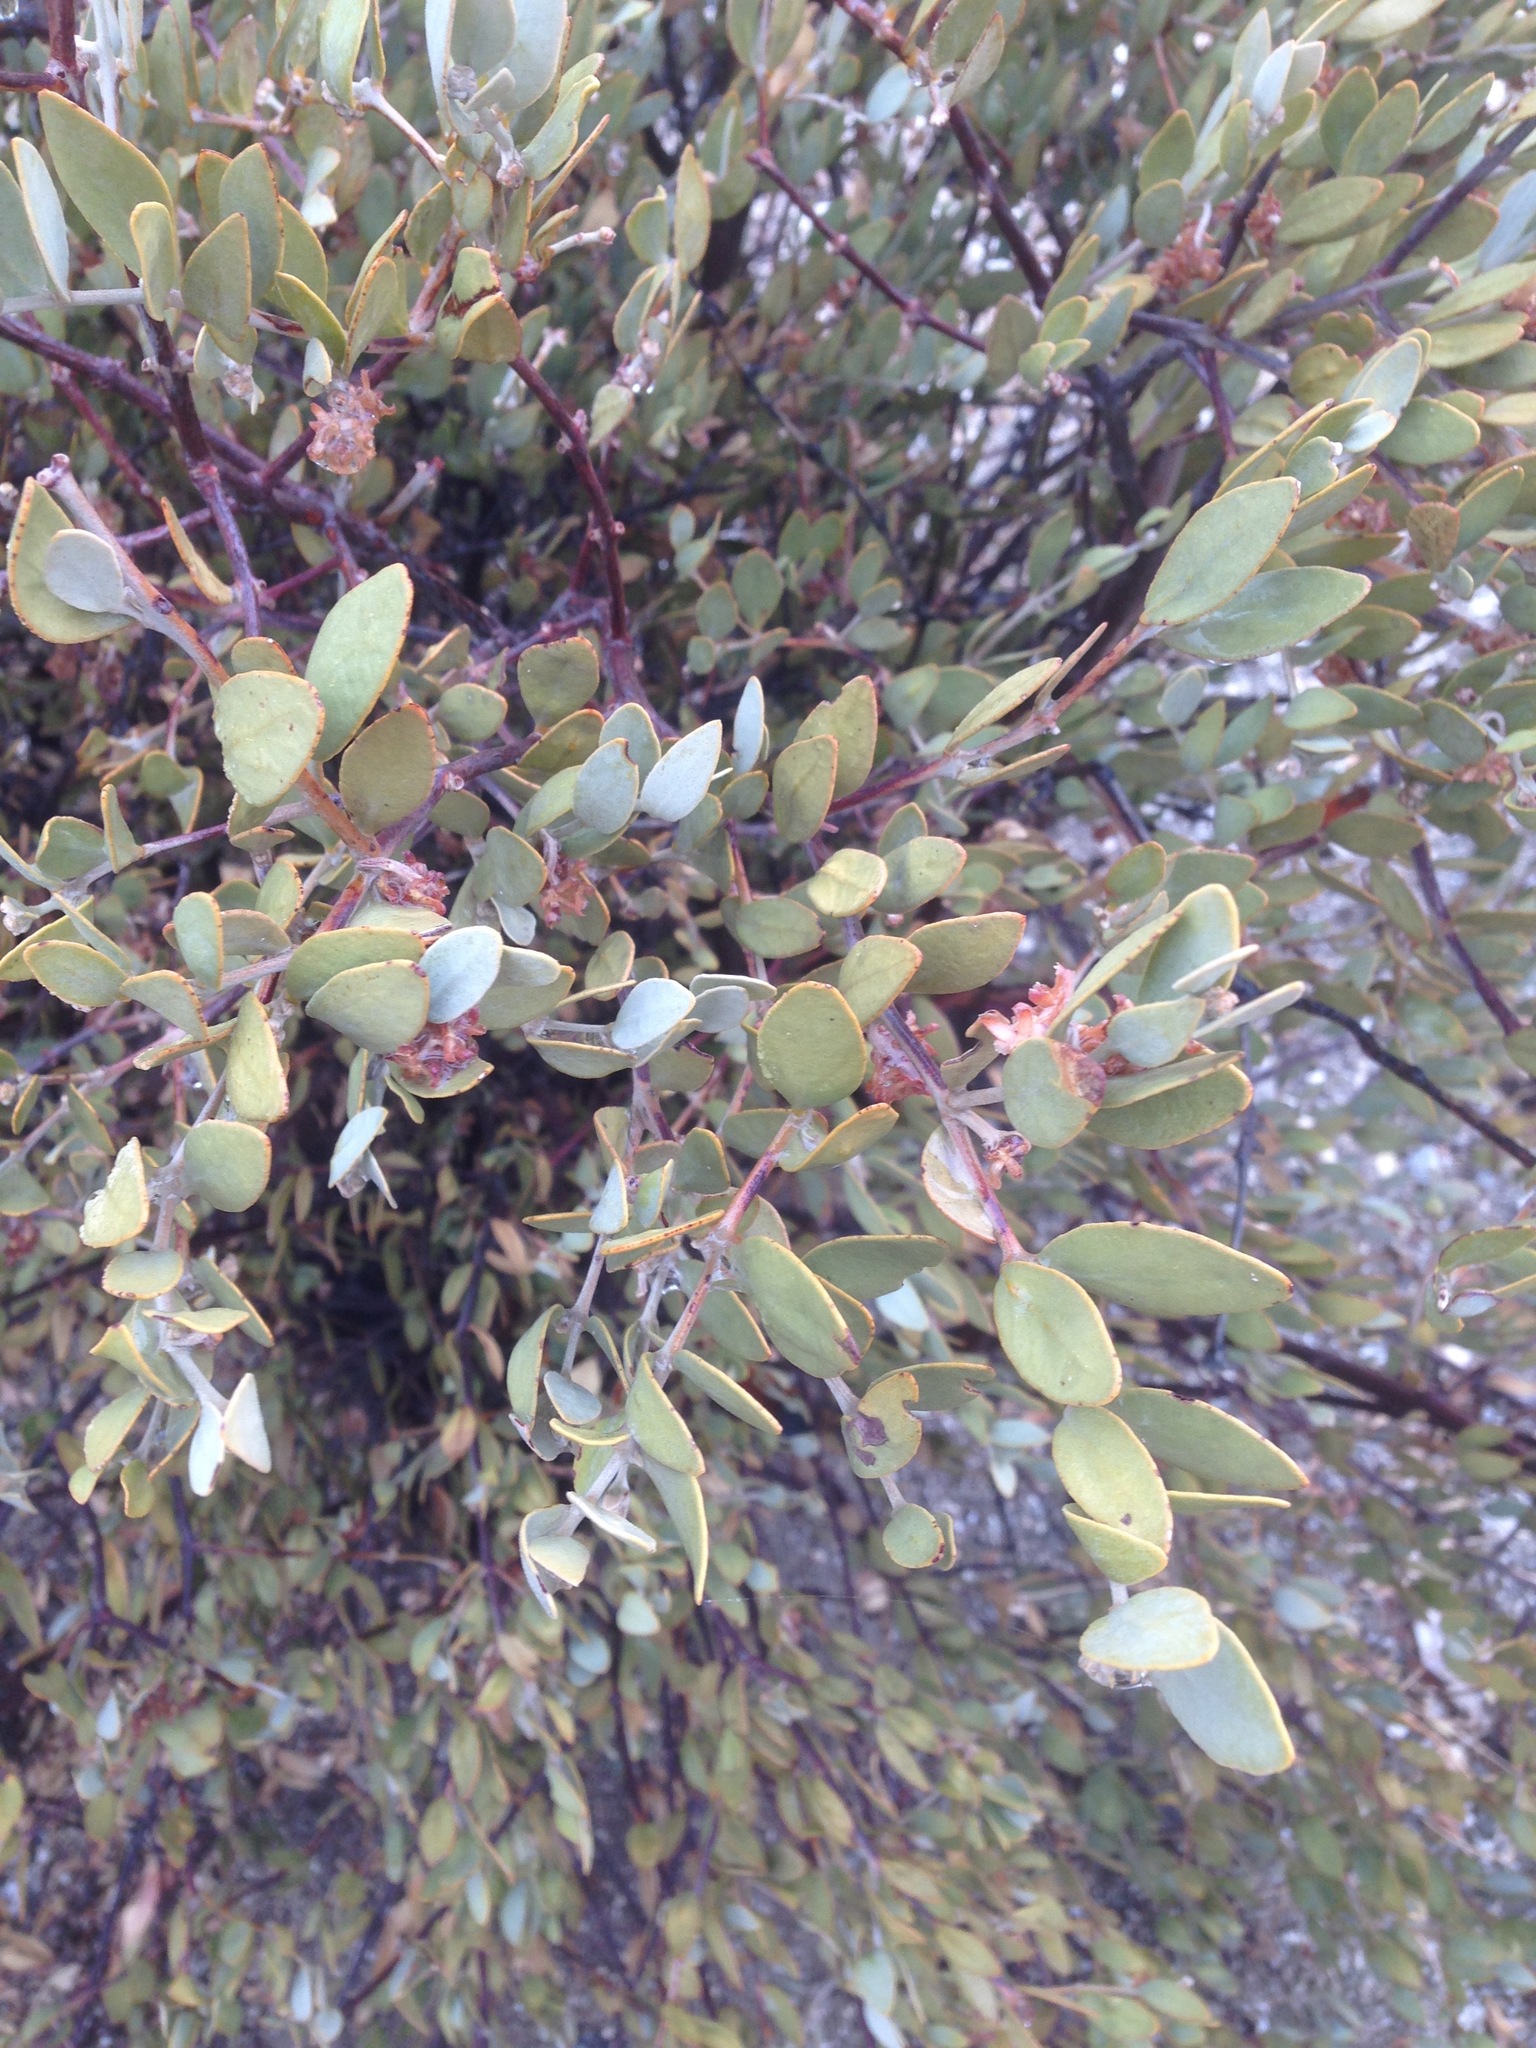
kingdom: Plantae
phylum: Tracheophyta
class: Magnoliopsida
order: Caryophyllales
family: Simmondsiaceae
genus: Simmondsia
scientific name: Simmondsia chinensis
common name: Jojoba
